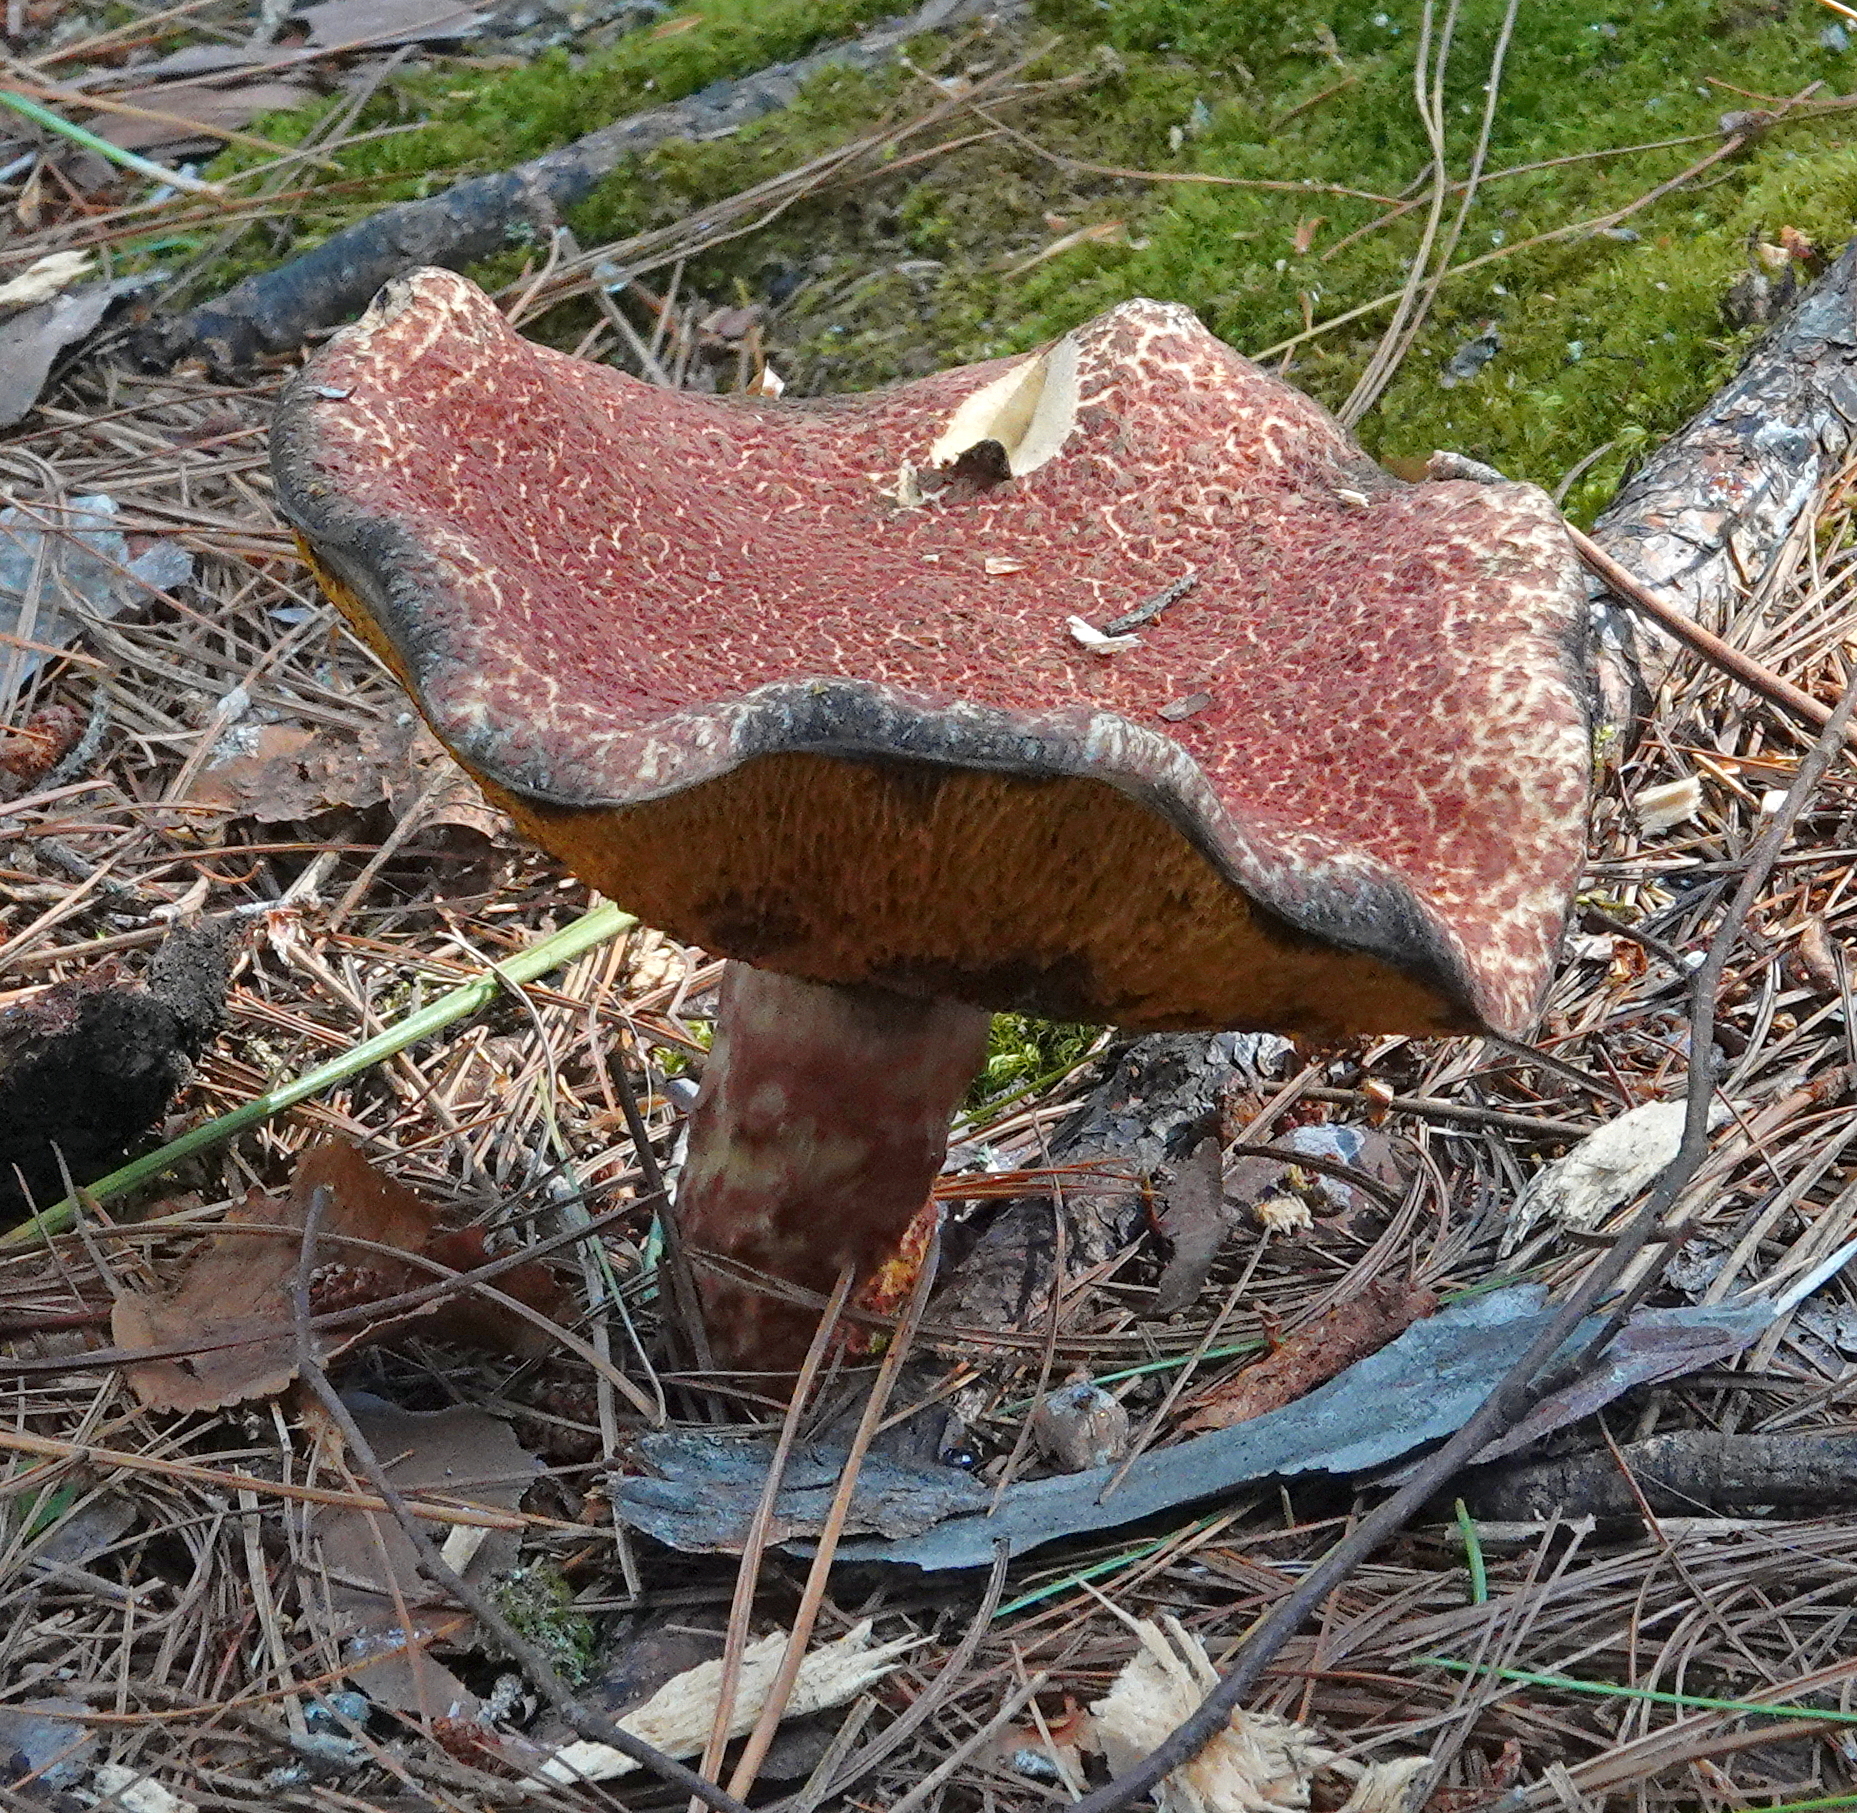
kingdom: Fungi
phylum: Basidiomycota
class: Agaricomycetes
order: Boletales
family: Suillaceae
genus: Suillus
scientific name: Suillus spraguei
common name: Painted suillus
